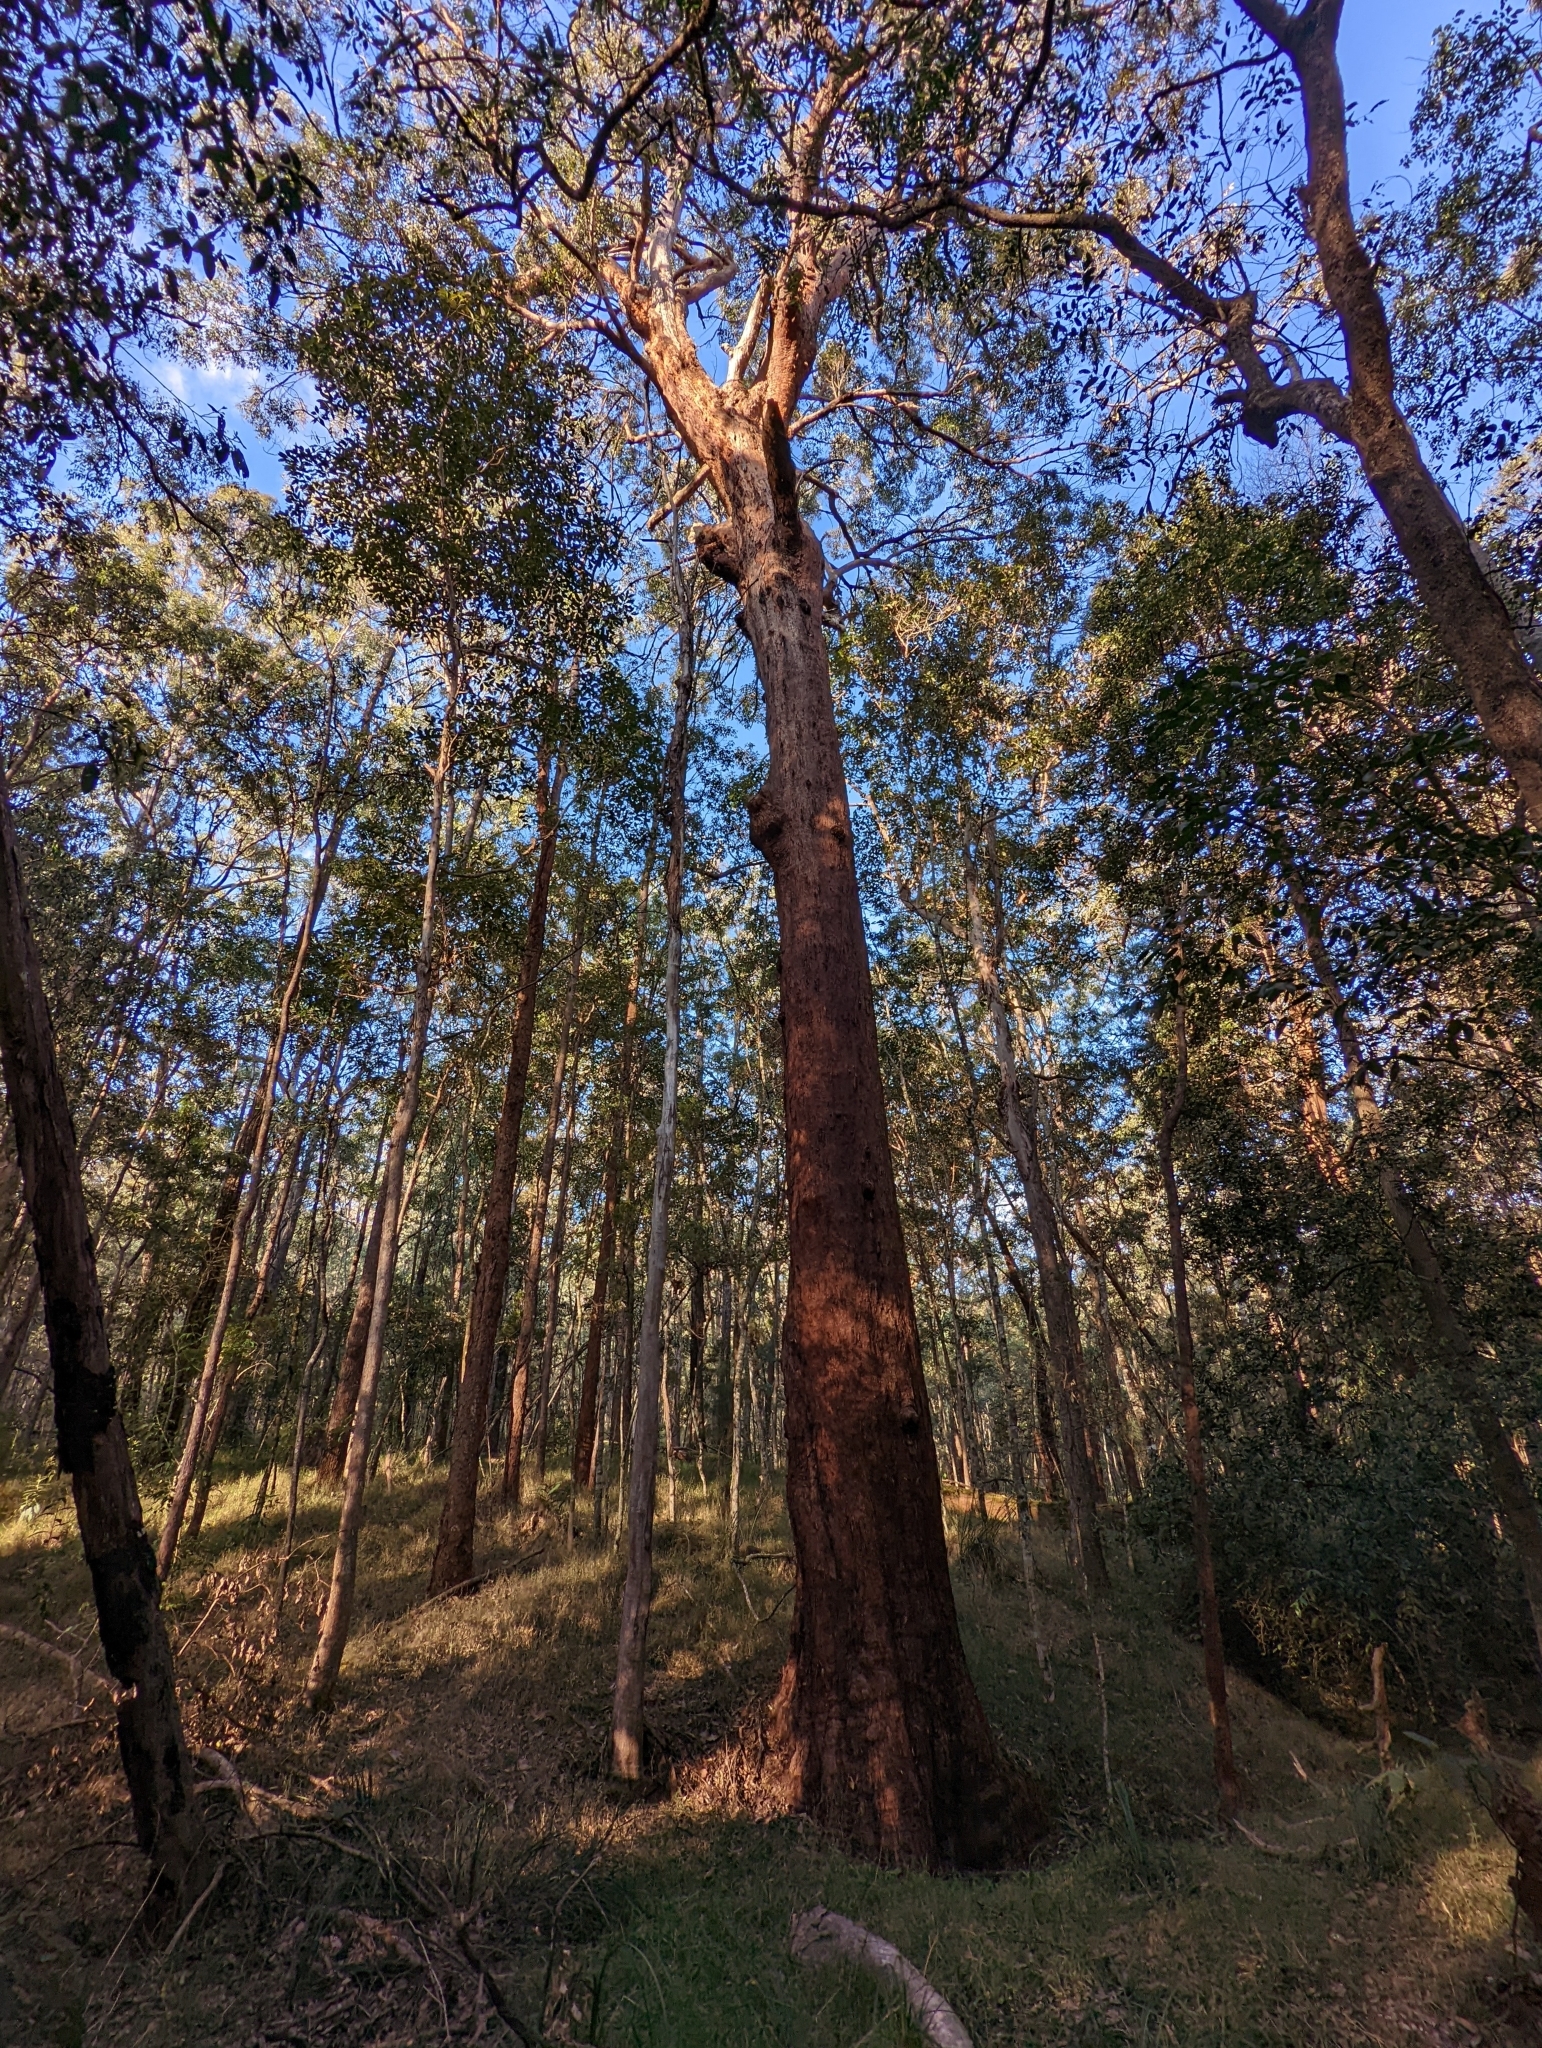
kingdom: Plantae
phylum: Tracheophyta
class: Magnoliopsida
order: Myrtales
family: Myrtaceae
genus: Eucalyptus
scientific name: Eucalyptus microcorys
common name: Tallowwood
